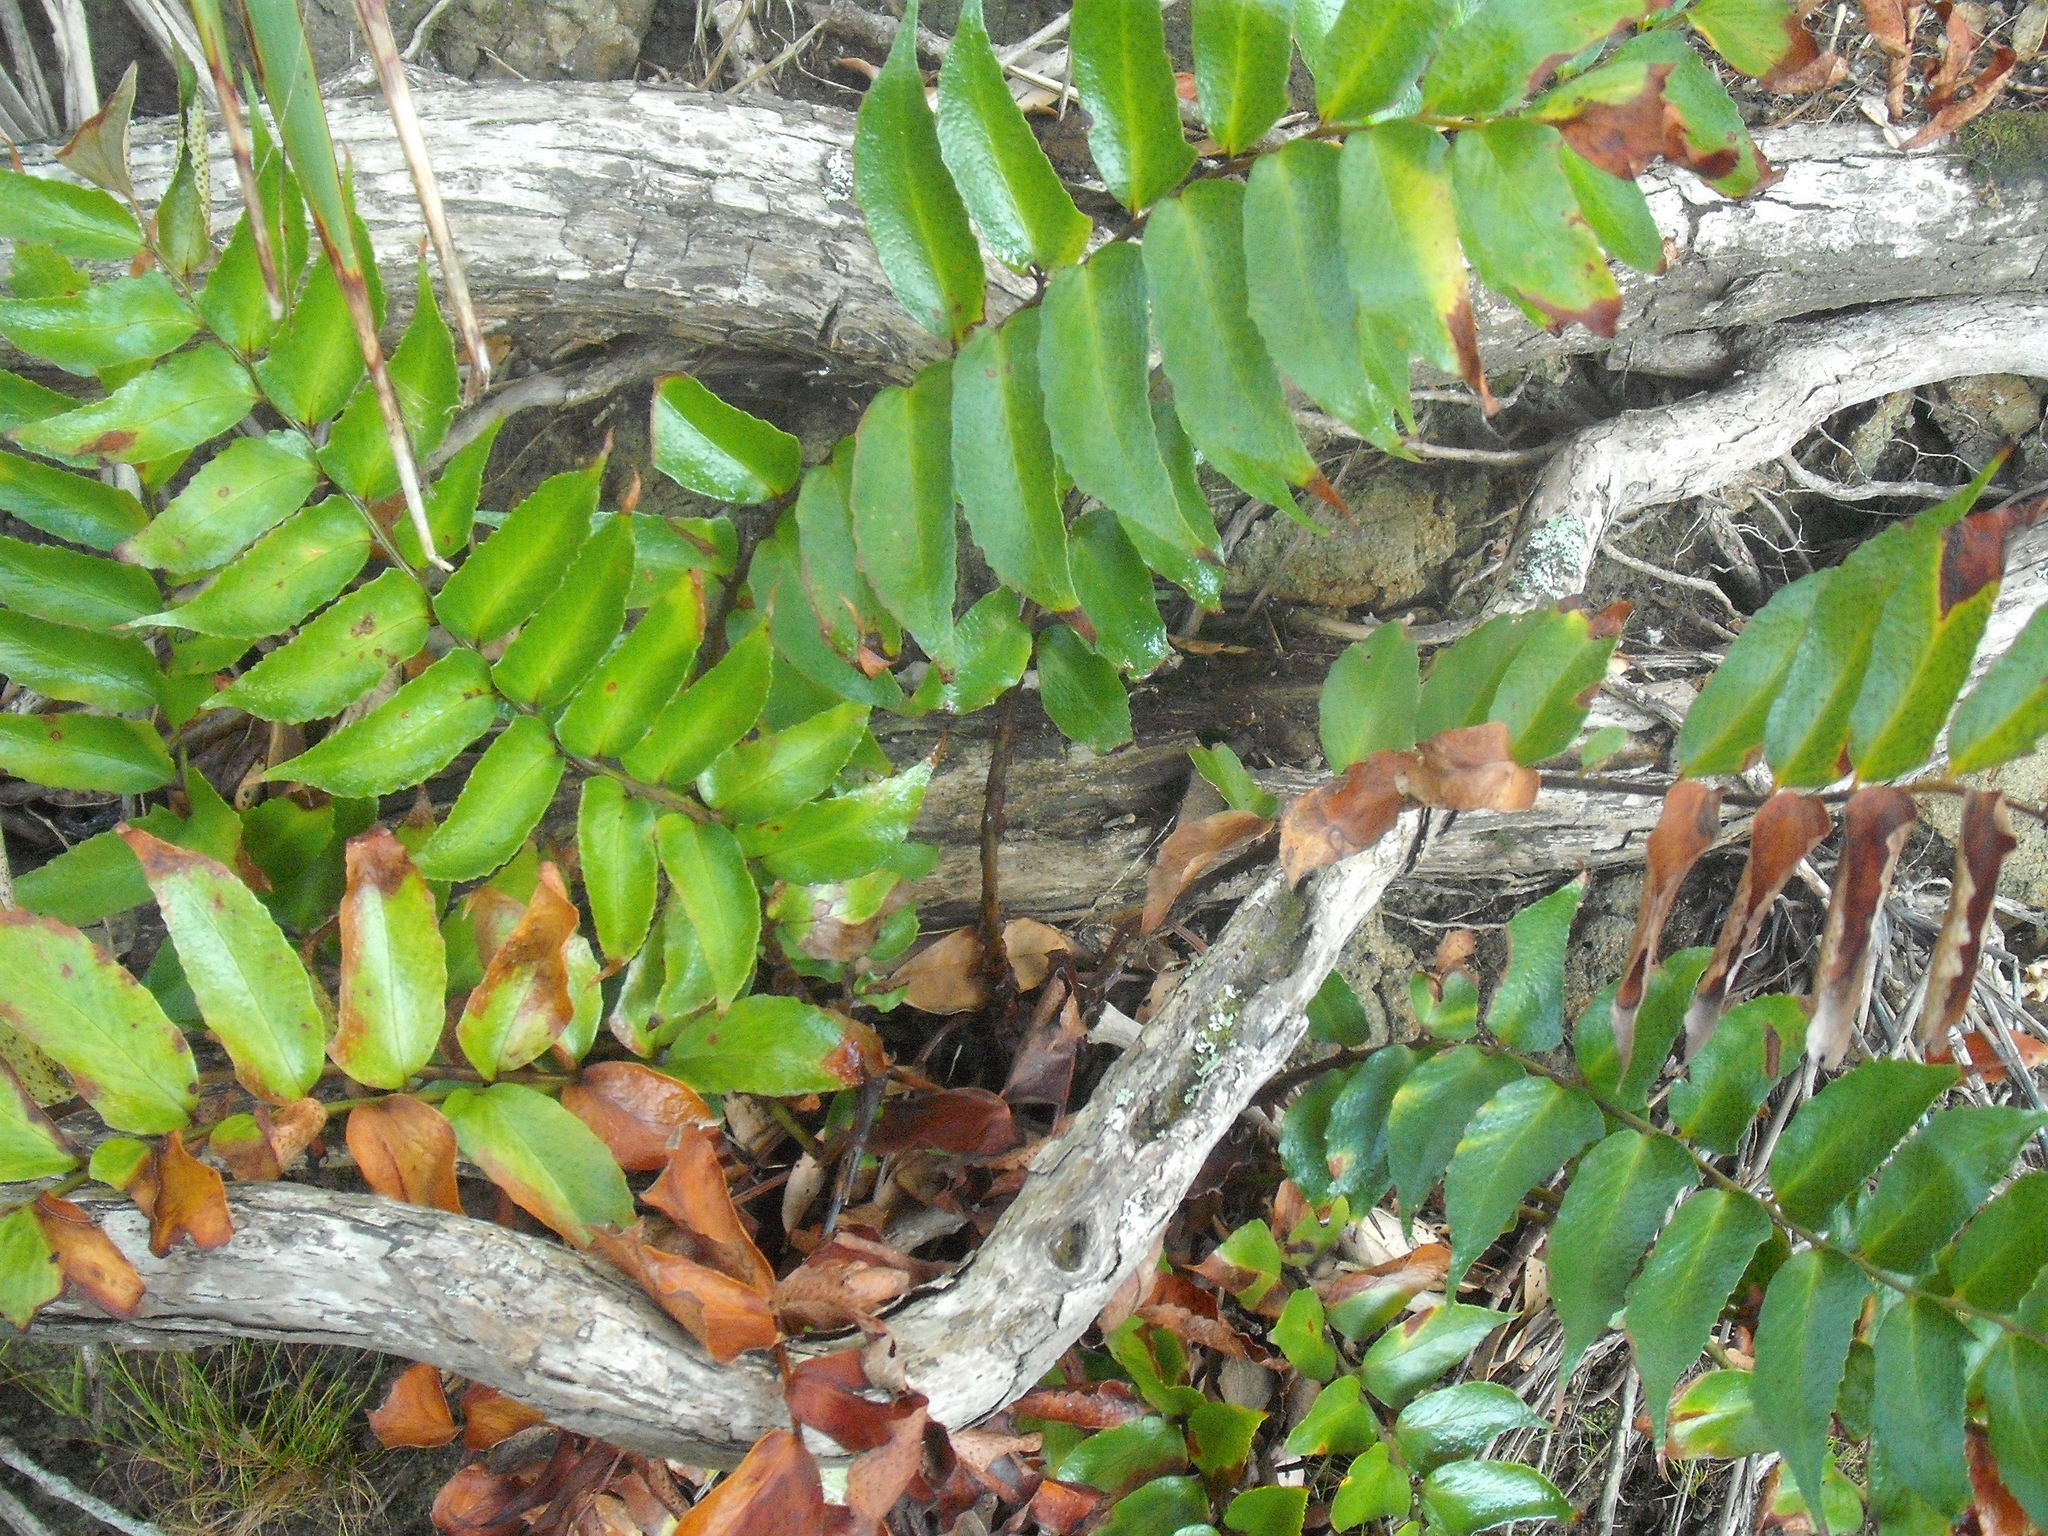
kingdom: Plantae
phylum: Tracheophyta
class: Polypodiopsida
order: Polypodiales
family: Dryopteridaceae
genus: Cyrtomium
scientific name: Cyrtomium falcatum
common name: House holly-fern
